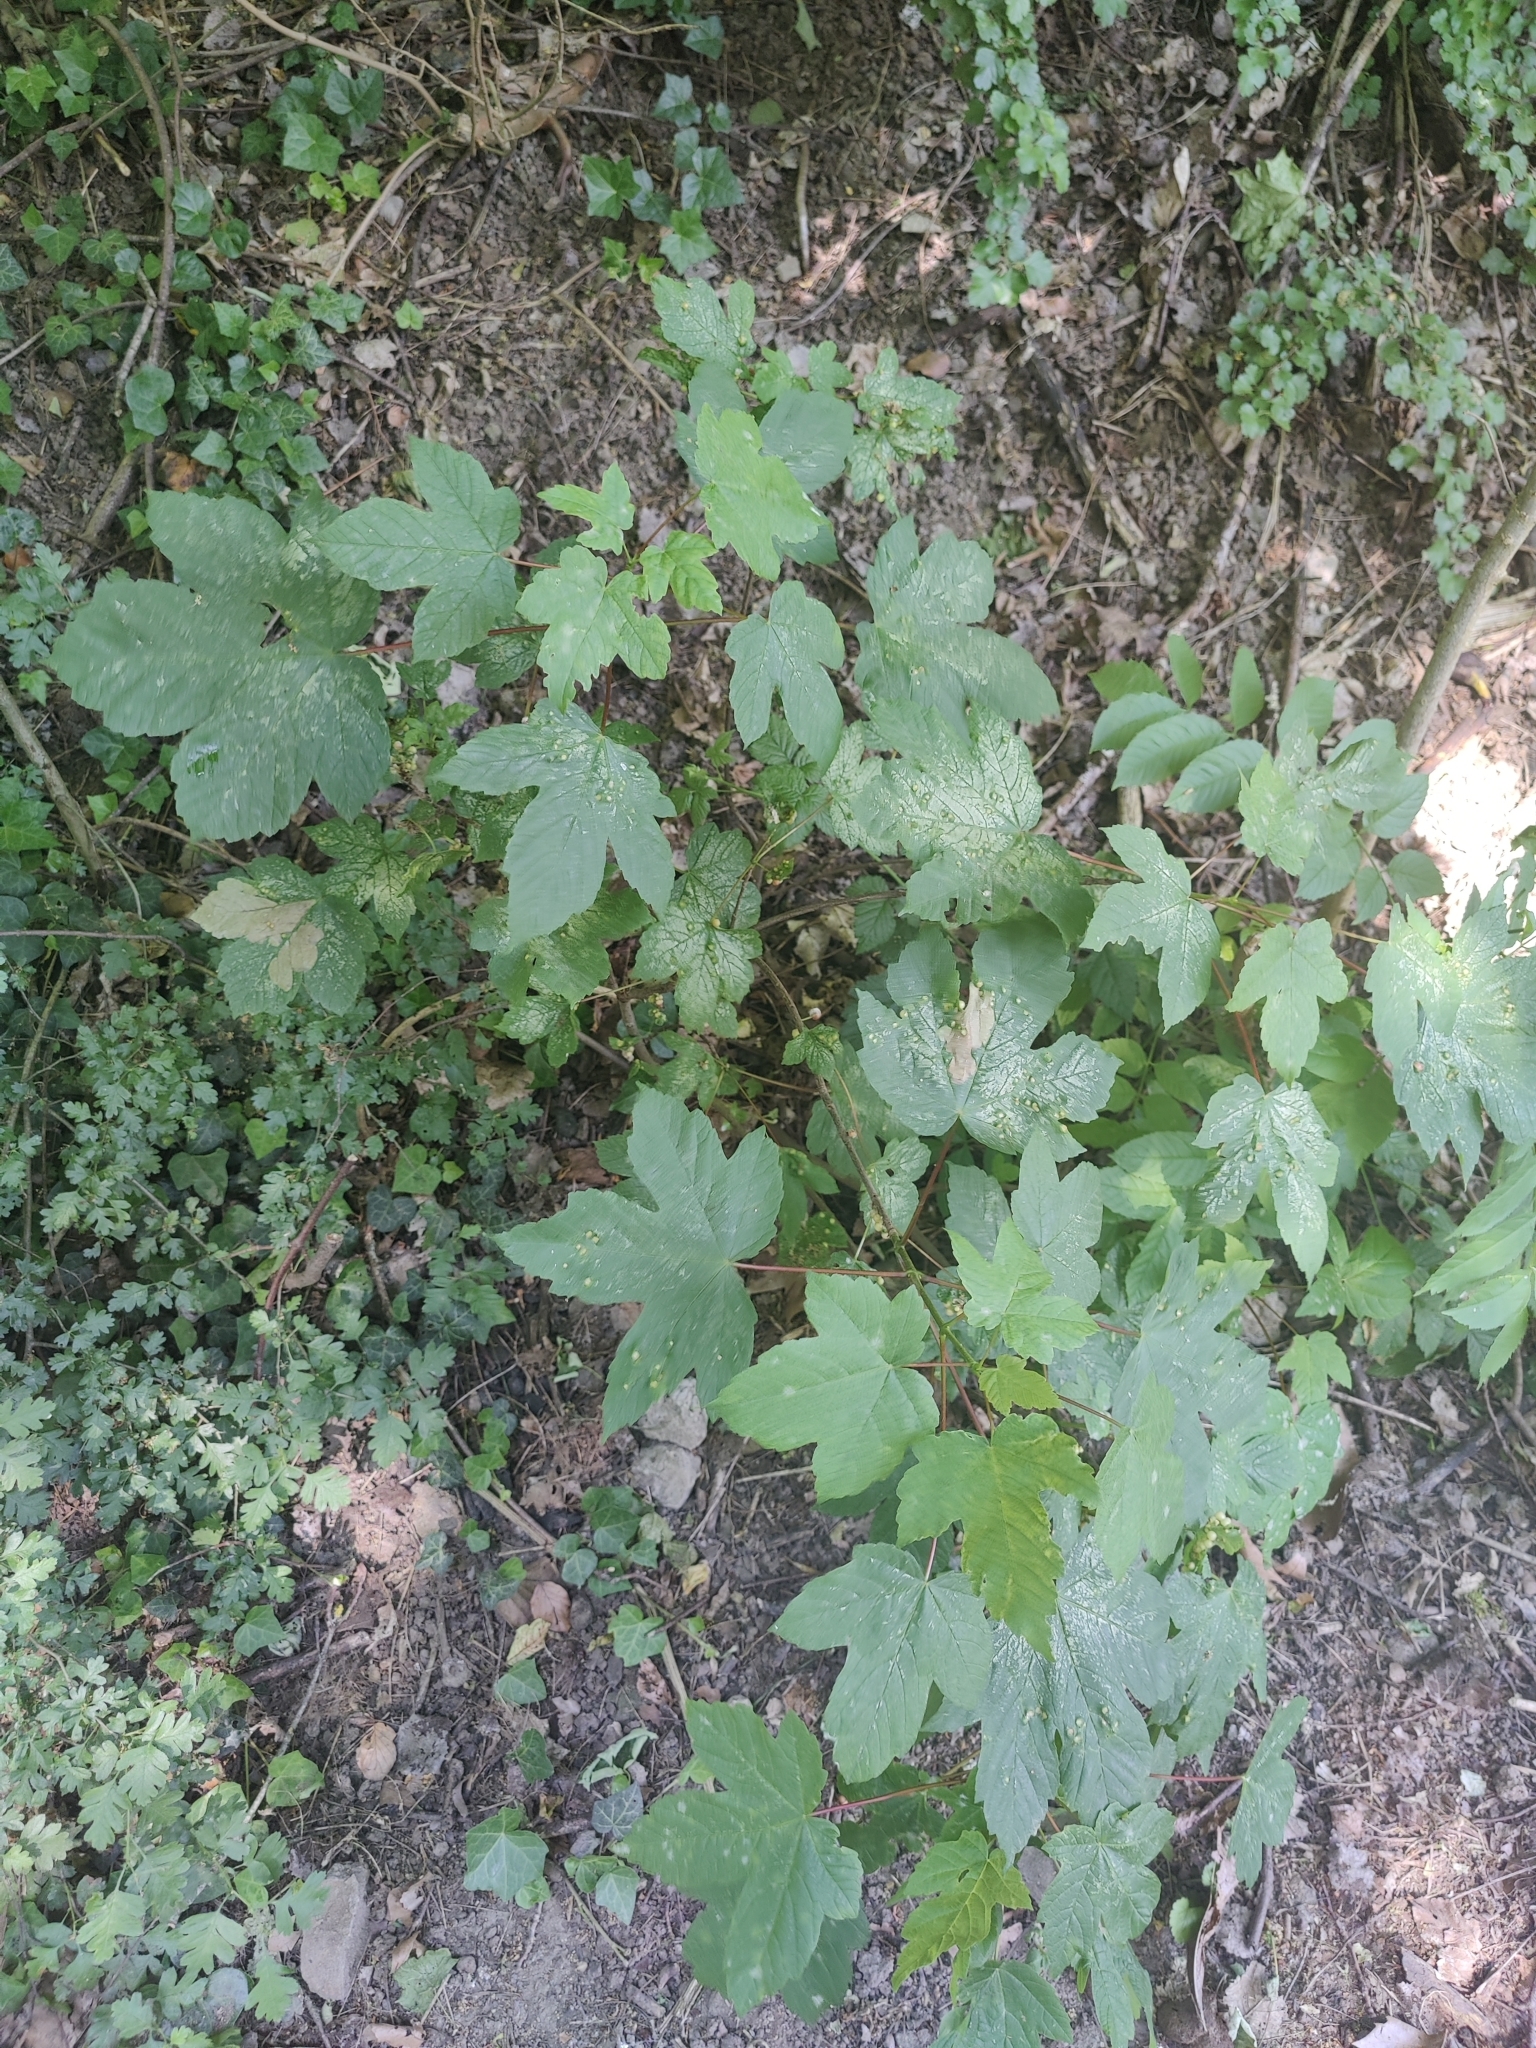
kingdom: Animalia
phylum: Arthropoda
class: Insecta
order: Hymenoptera
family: Cynipidae
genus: Pediaspis
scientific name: Pediaspis aceris
